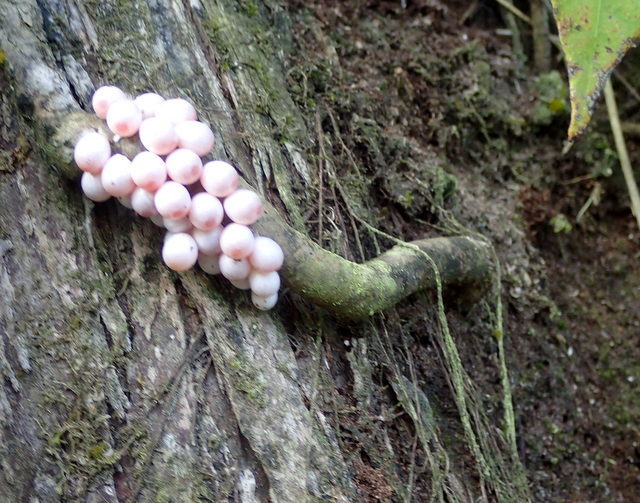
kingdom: Animalia
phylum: Mollusca
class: Gastropoda
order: Architaenioglossa
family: Ampullariidae
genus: Pomacea
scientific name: Pomacea paludosa
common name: Florida applesnail
